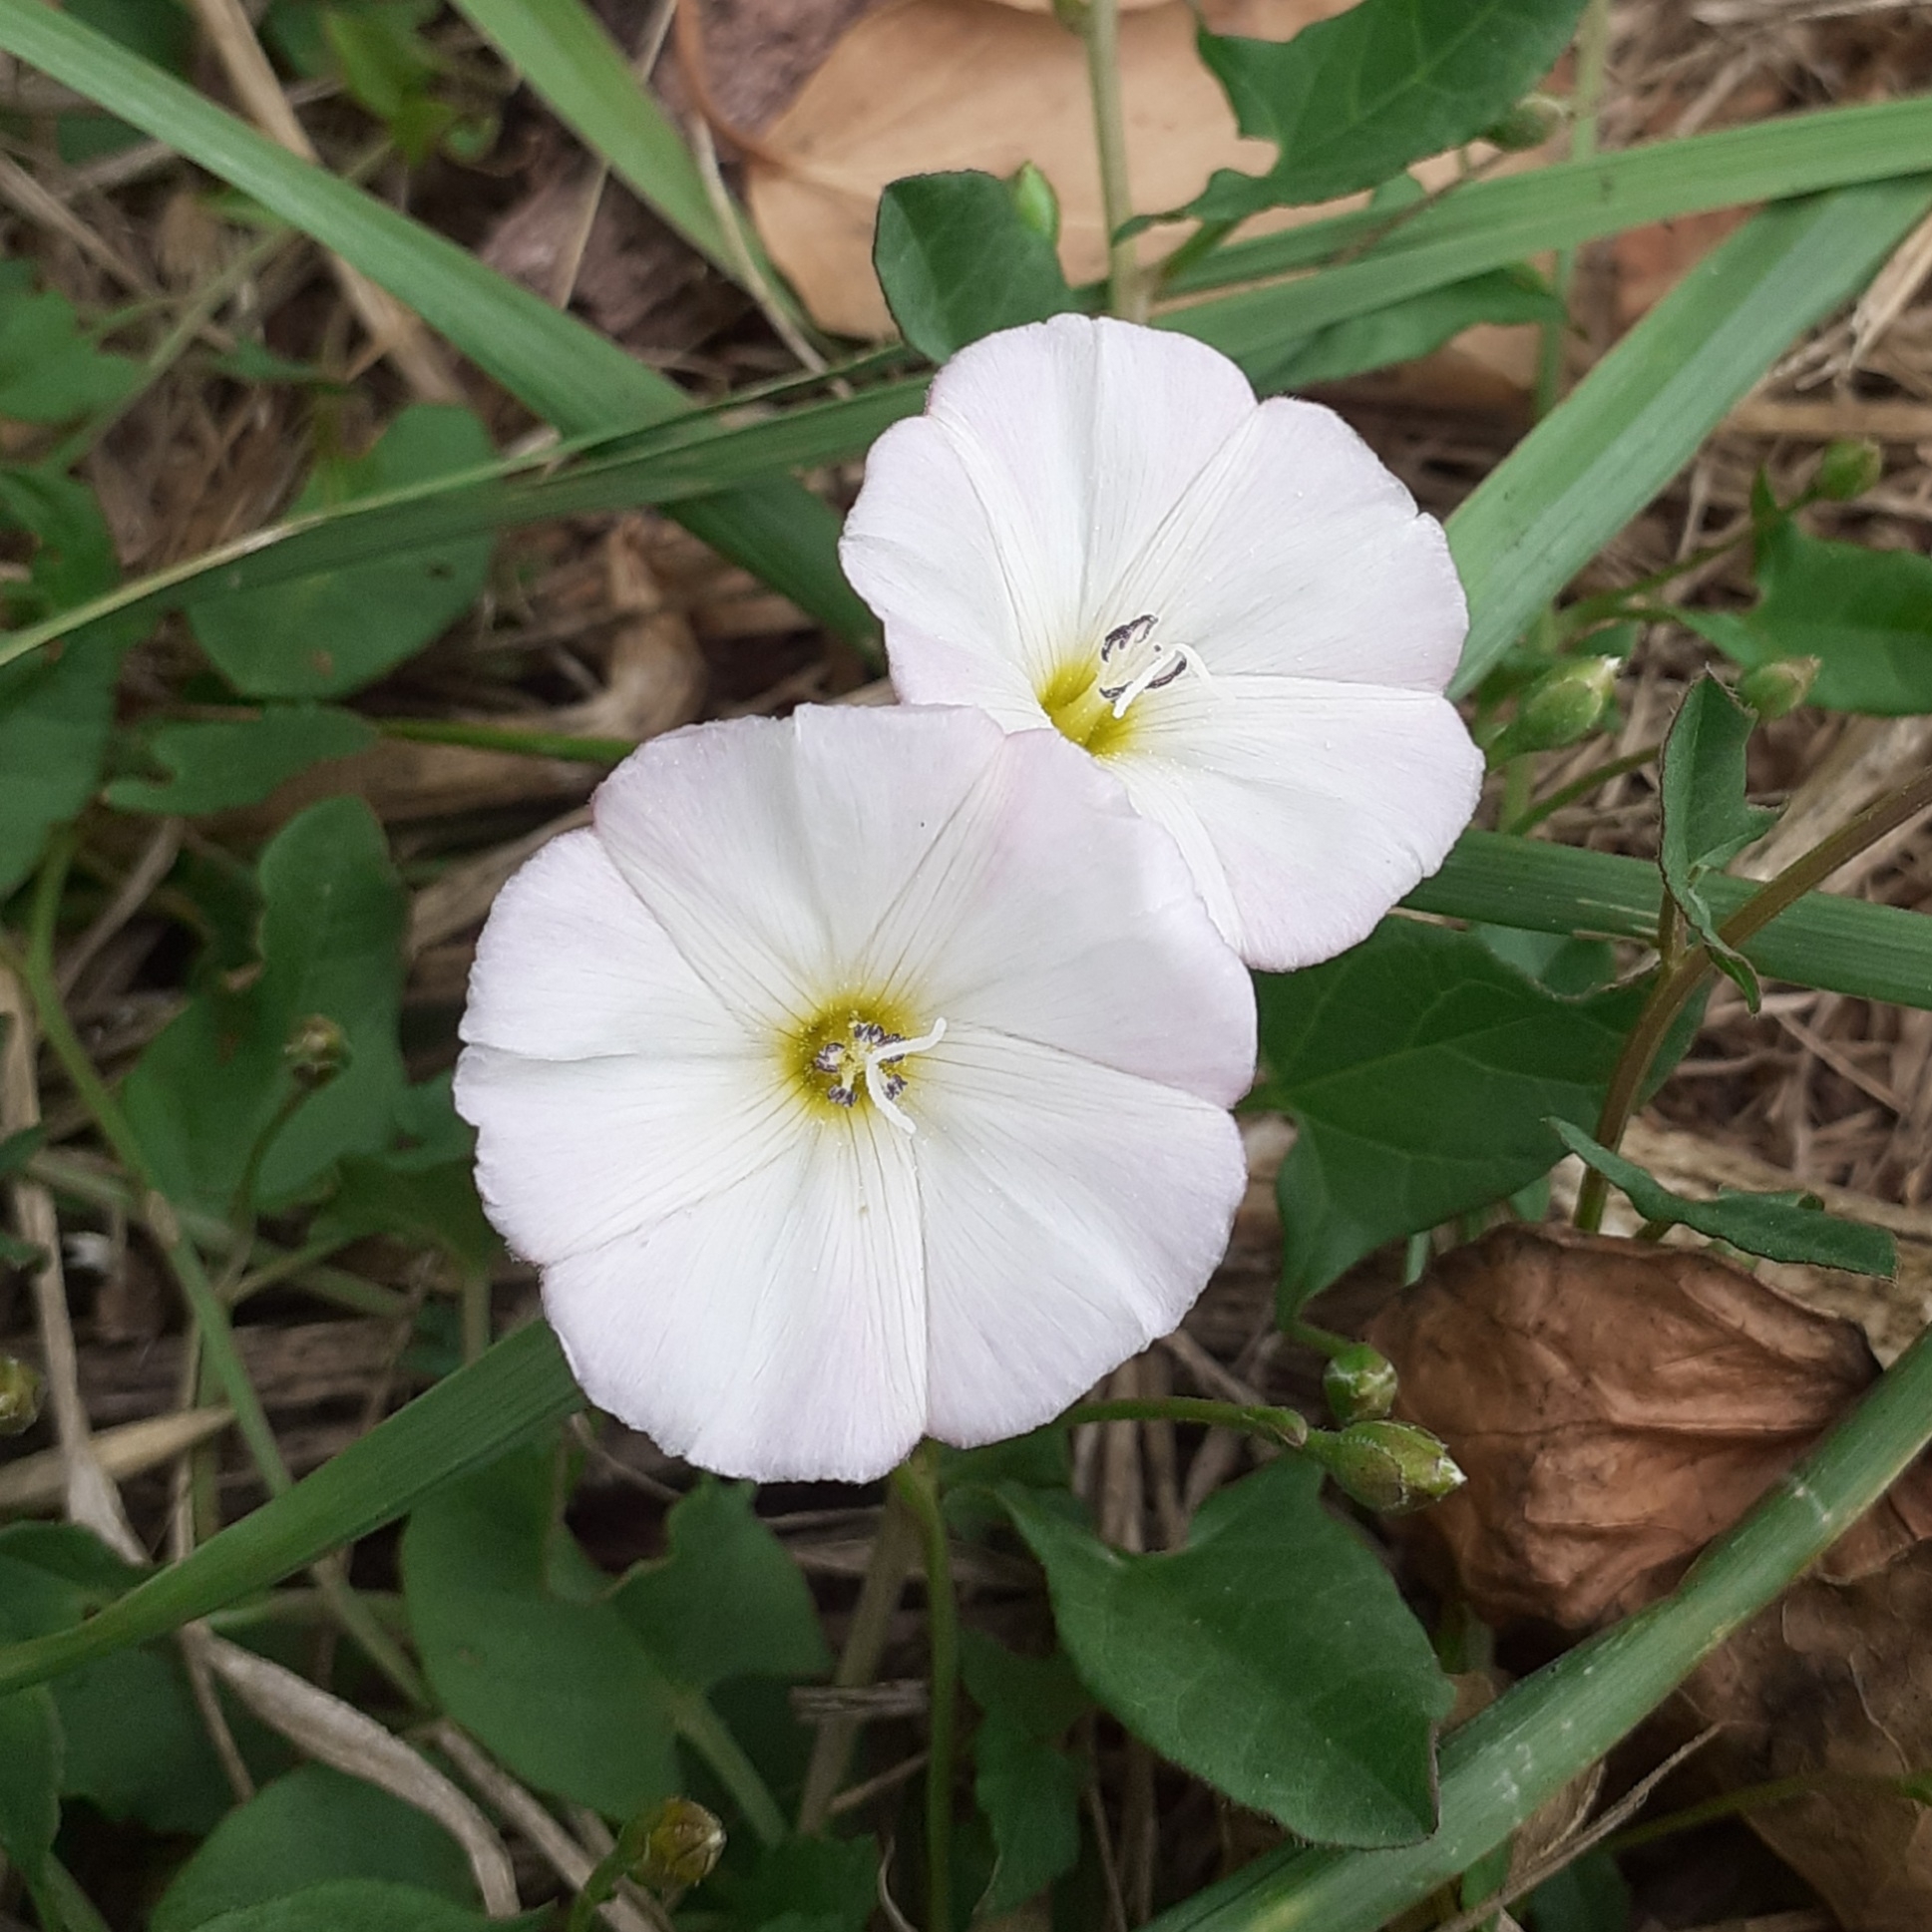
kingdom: Plantae
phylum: Tracheophyta
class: Magnoliopsida
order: Solanales
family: Convolvulaceae
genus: Convolvulus
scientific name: Convolvulus arvensis
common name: Field bindweed
